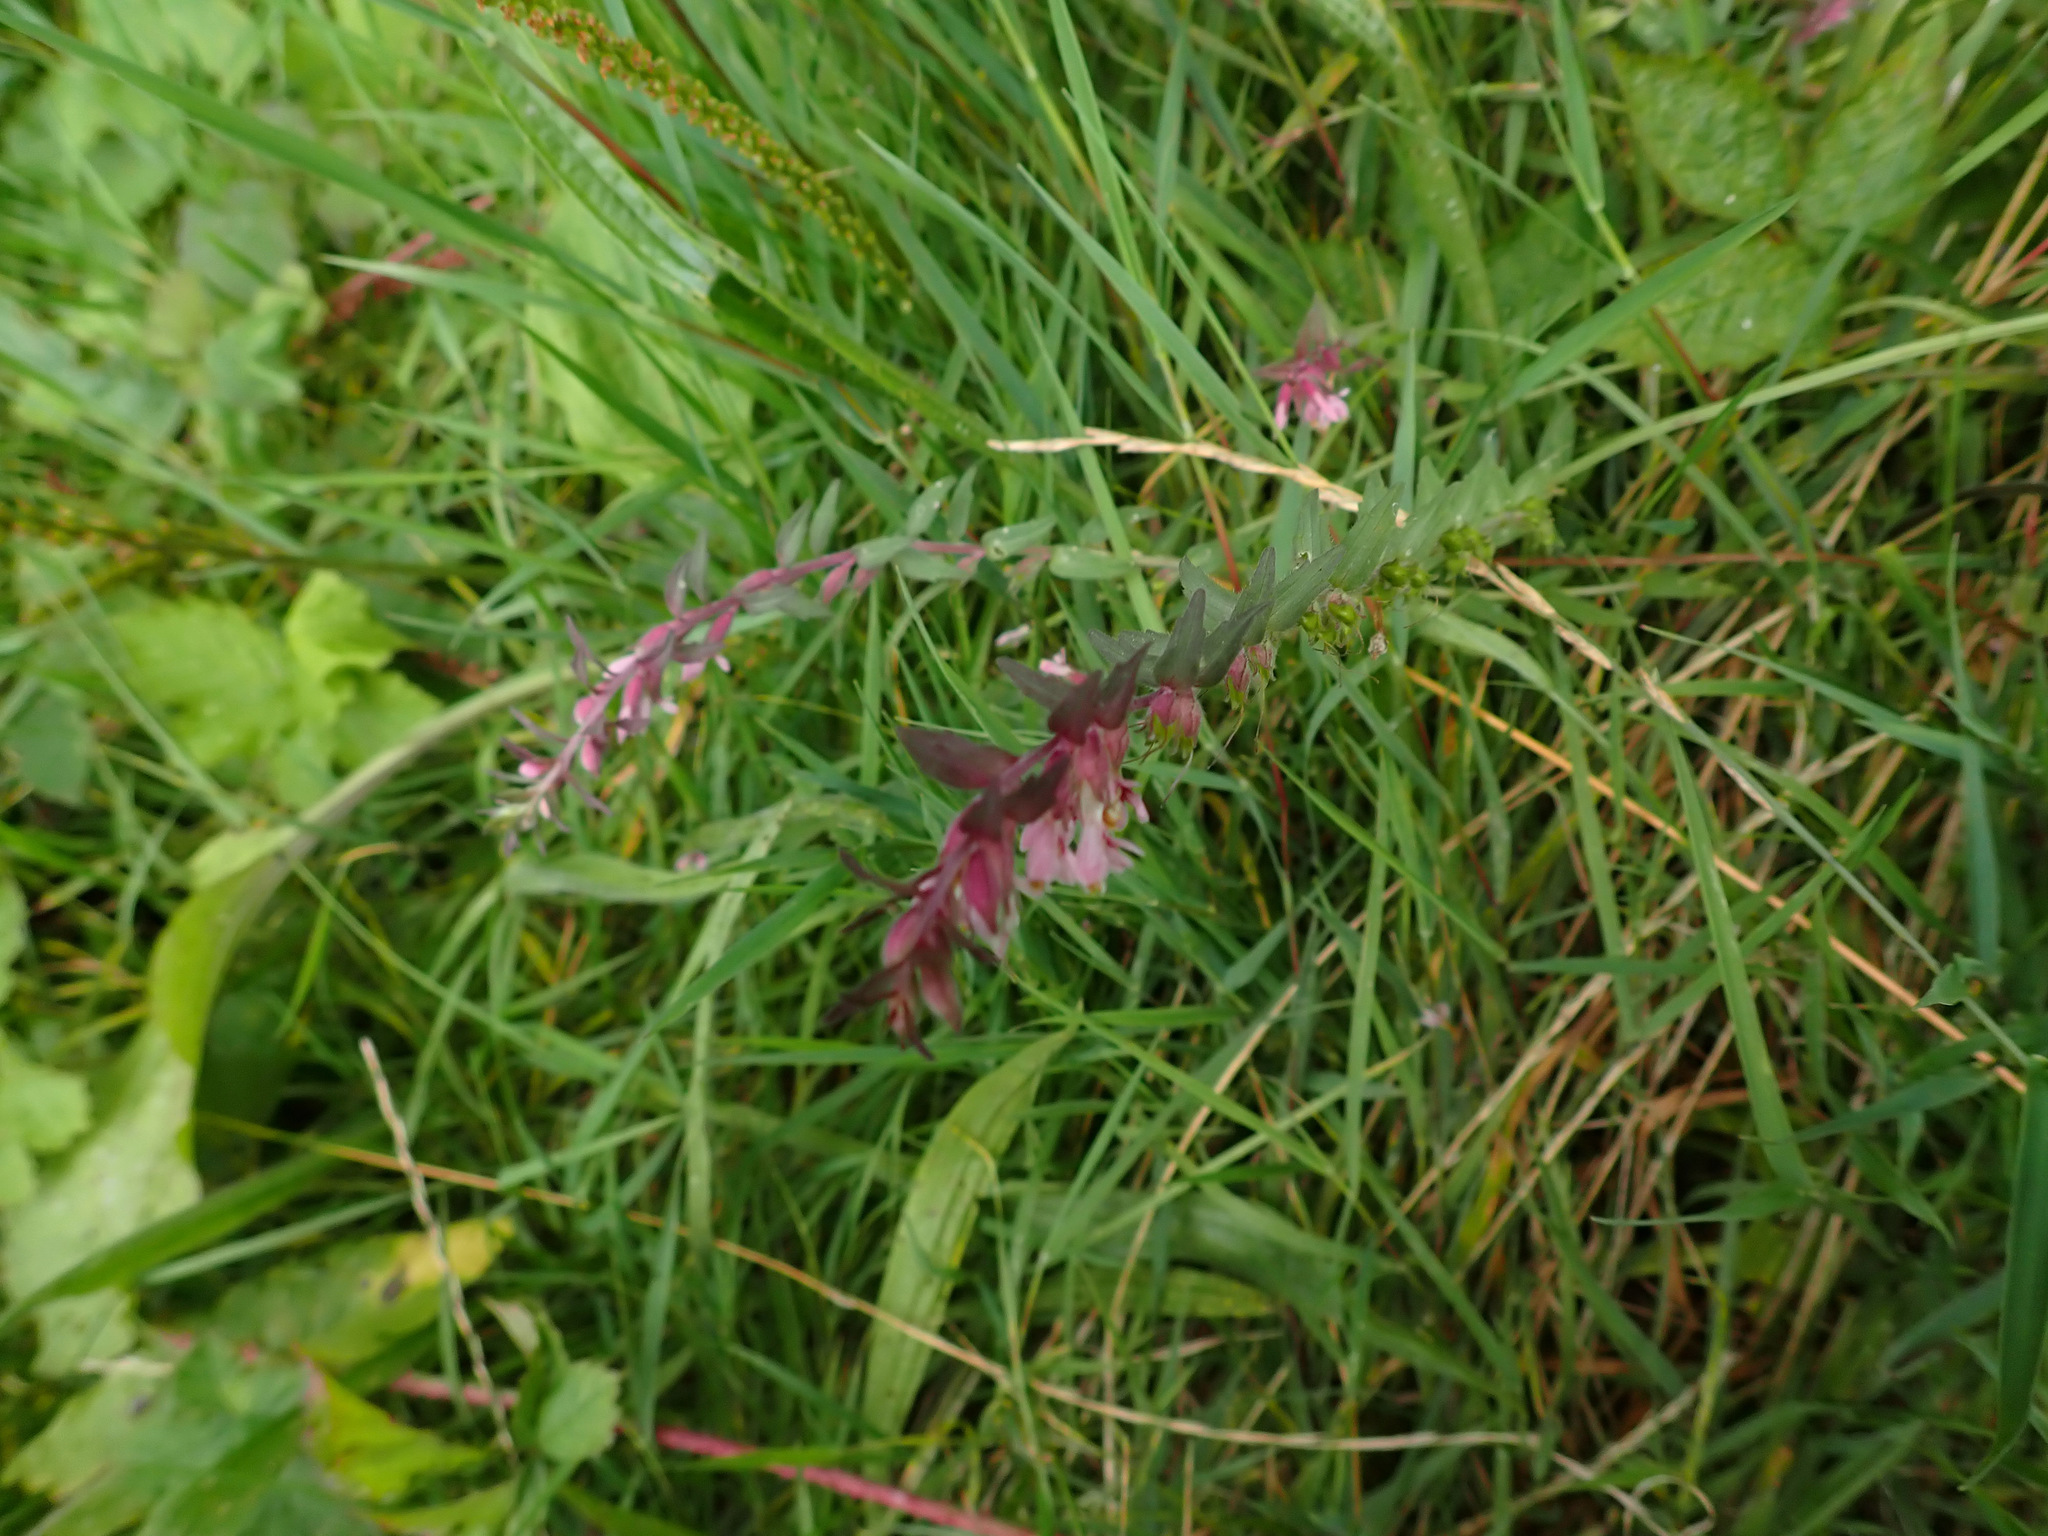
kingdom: Plantae
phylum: Tracheophyta
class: Magnoliopsida
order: Lamiales
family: Orobanchaceae
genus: Odontites
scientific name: Odontites vernus
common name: Red bartsia
